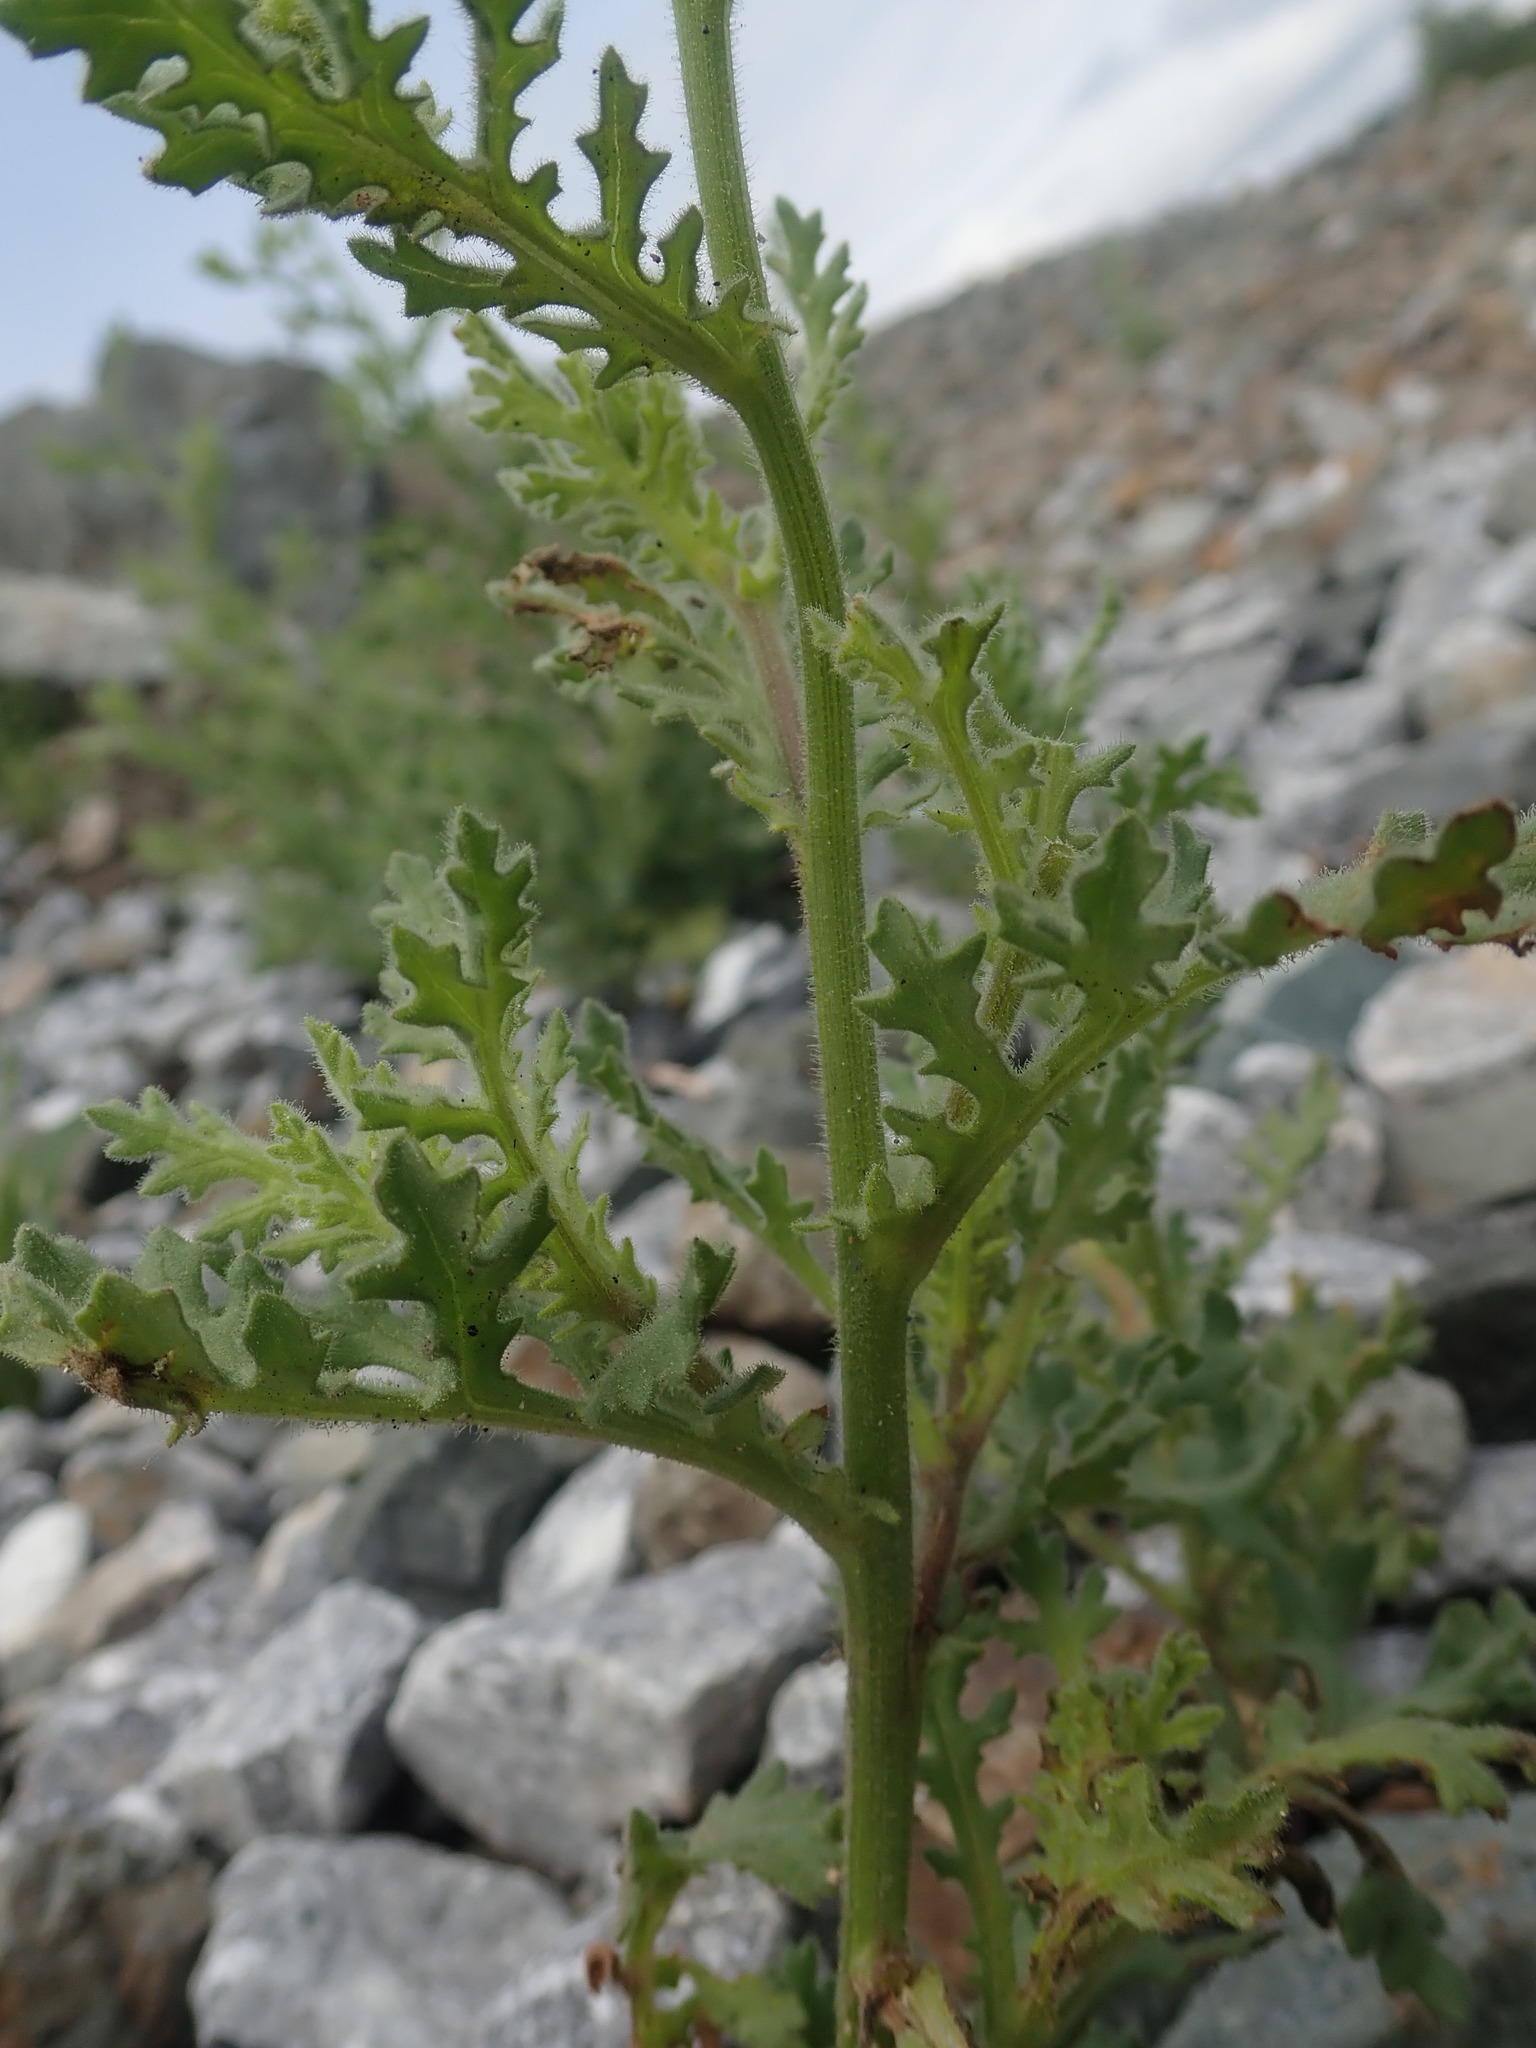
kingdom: Plantae
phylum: Tracheophyta
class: Magnoliopsida
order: Asterales
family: Asteraceae
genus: Senecio
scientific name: Senecio viscosus
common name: Sticky groundsel
